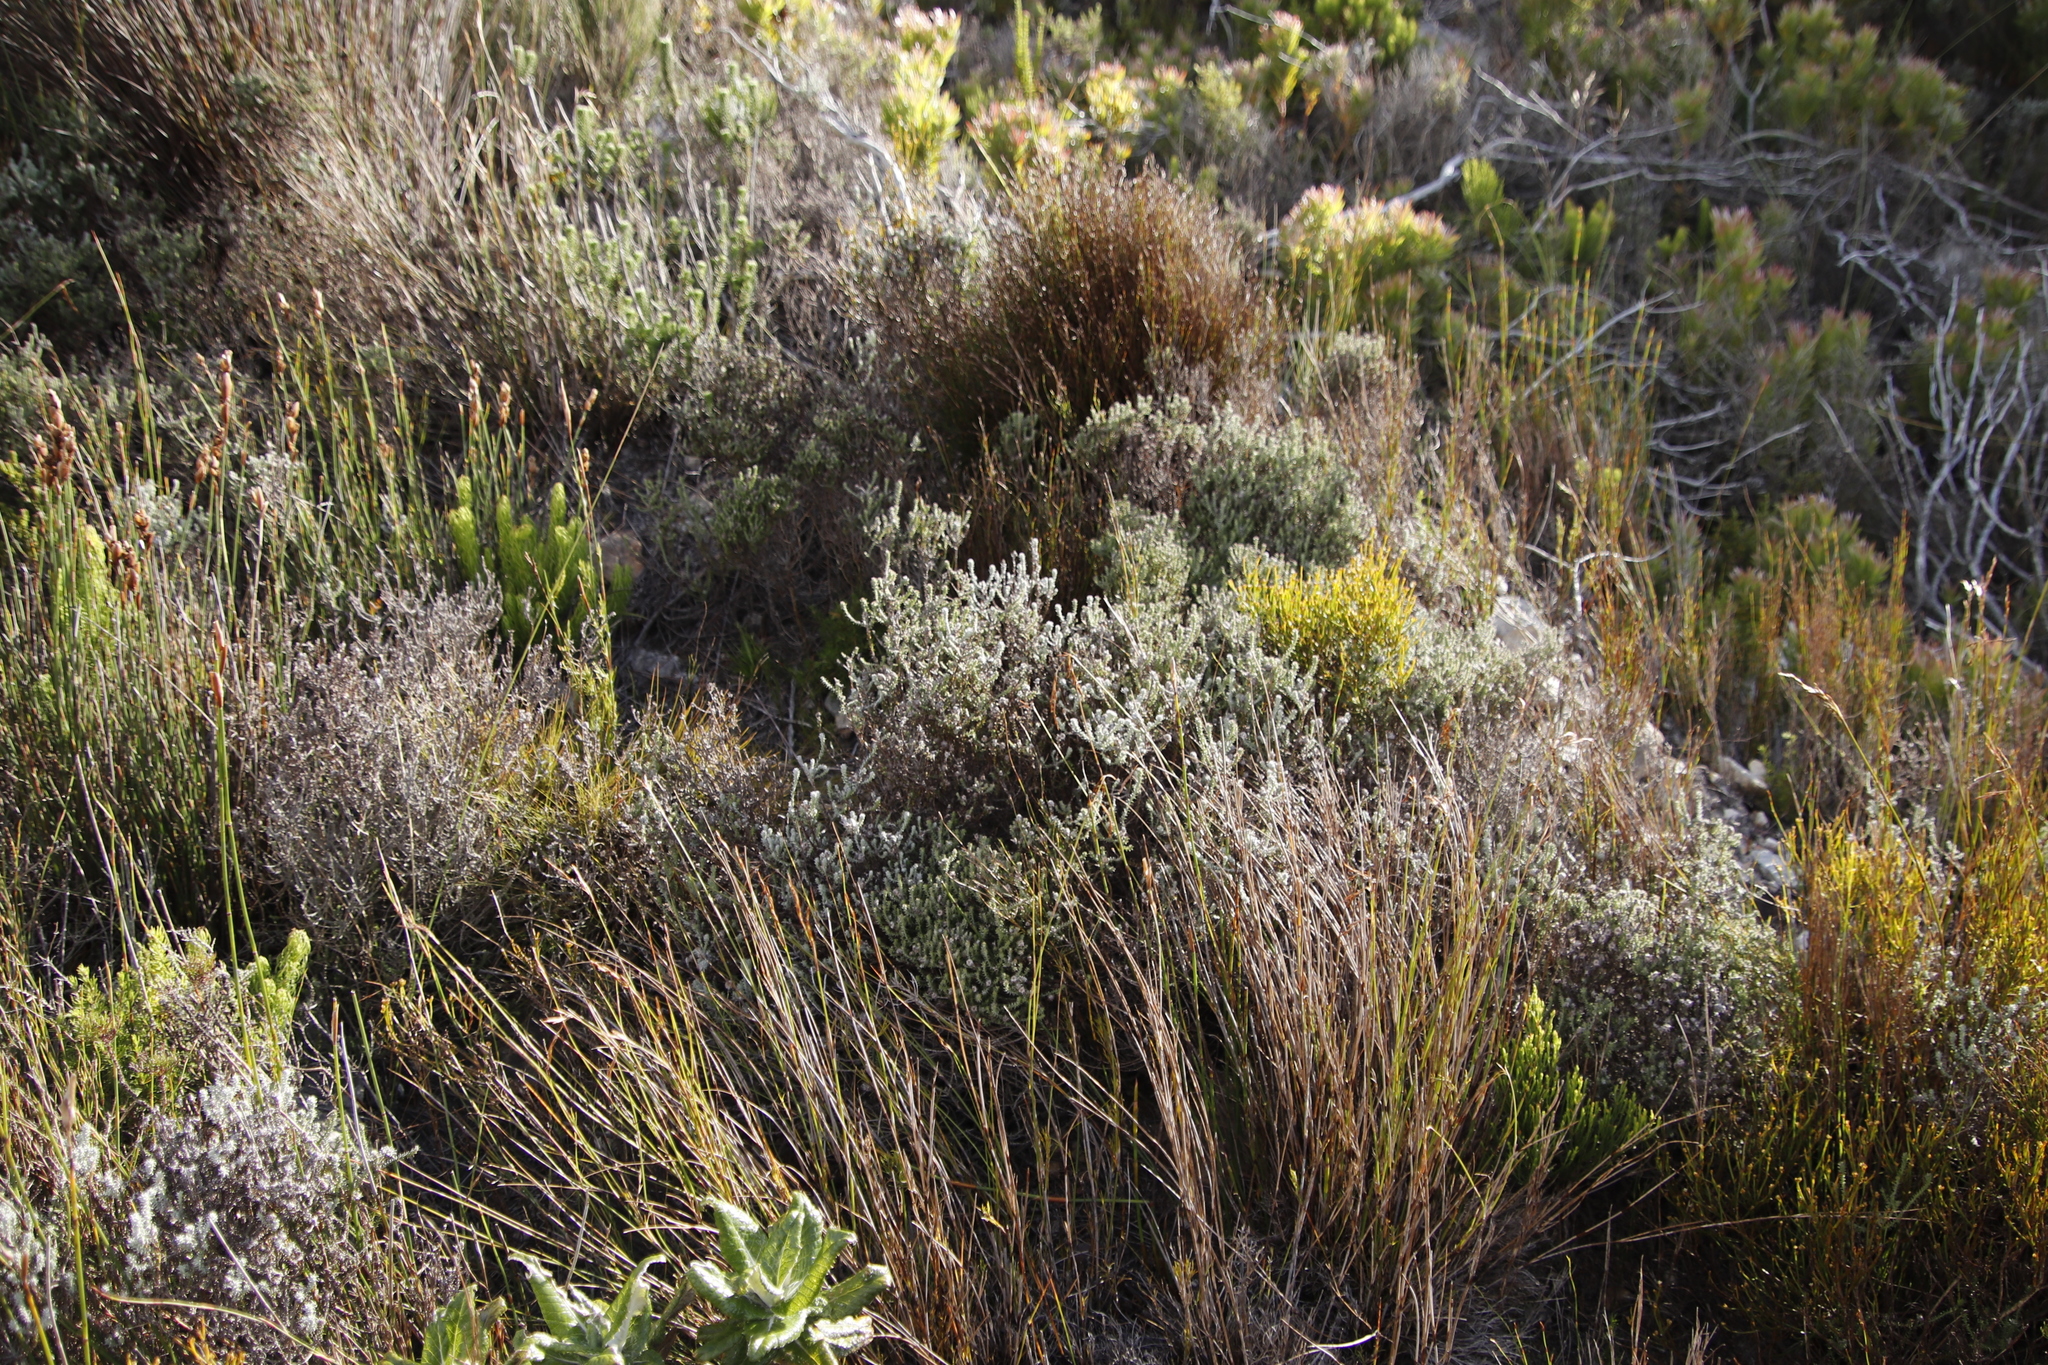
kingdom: Plantae
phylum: Tracheophyta
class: Magnoliopsida
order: Asterales
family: Asteraceae
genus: Seriphium
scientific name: Seriphium incanum
